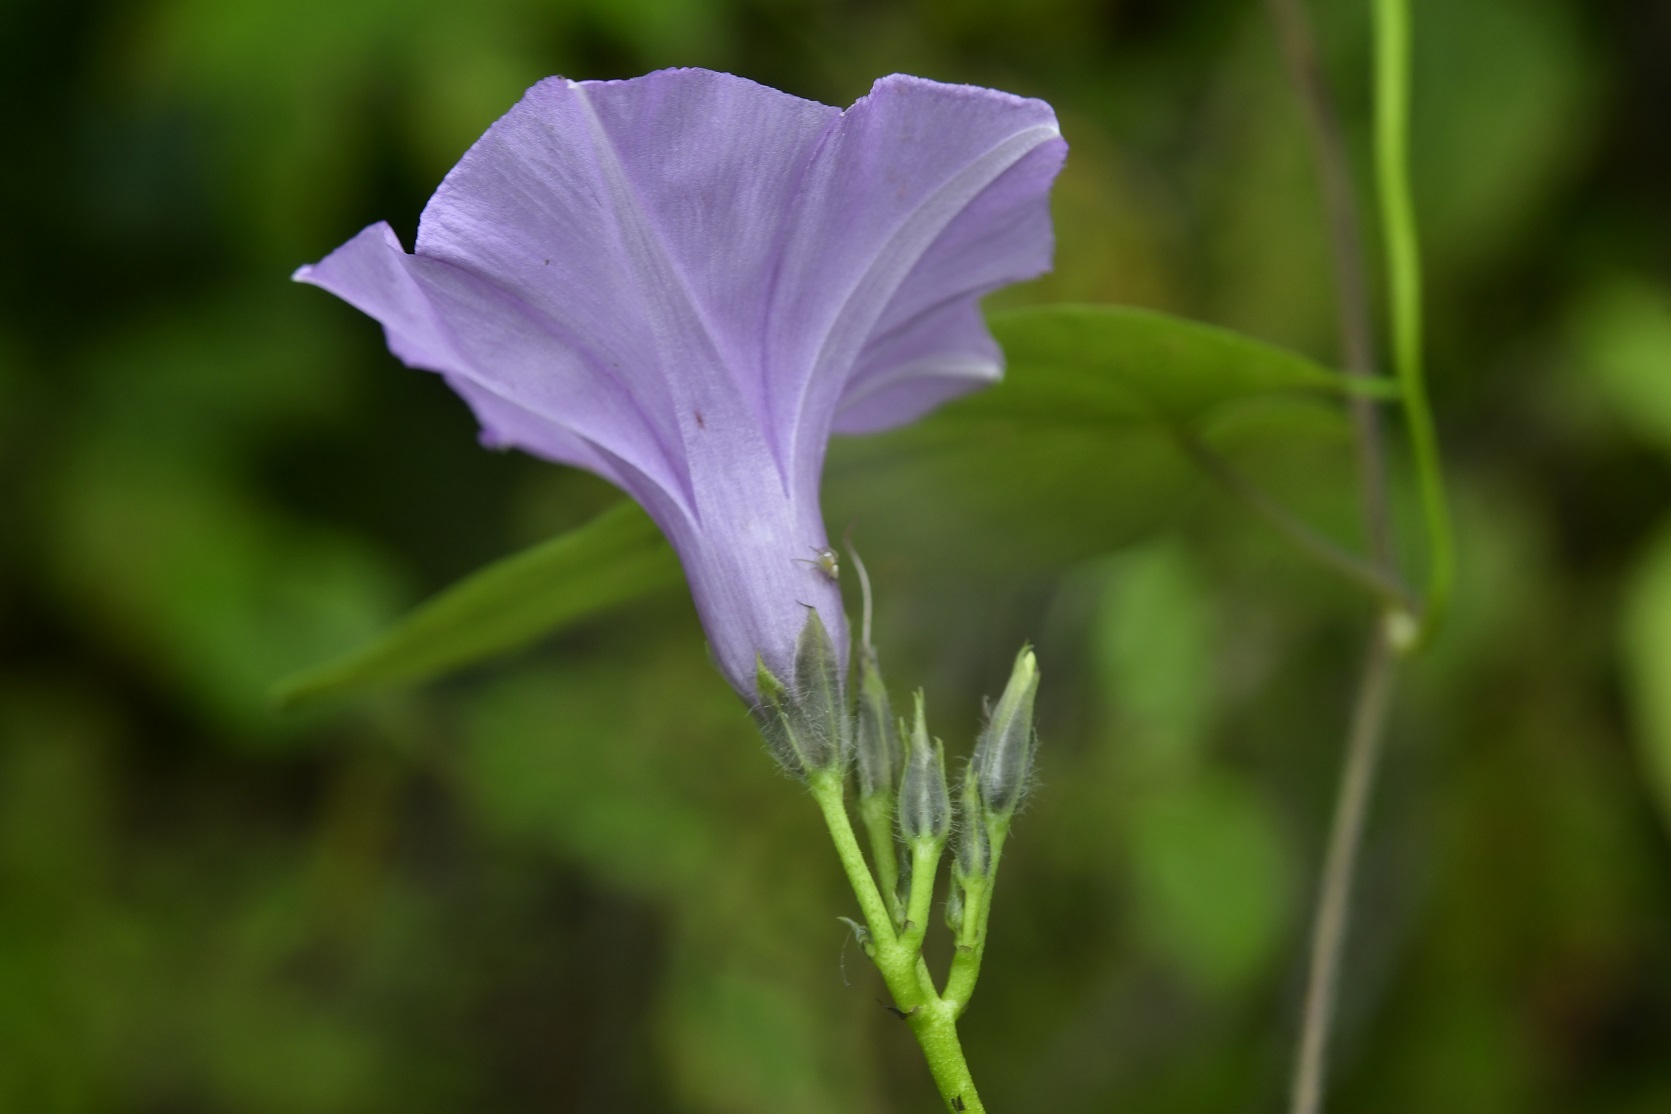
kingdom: Plantae
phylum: Tracheophyta
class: Magnoliopsida
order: Solanales
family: Convolvulaceae
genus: Ipomoea
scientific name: Ipomoea trifida
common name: Cotton morningglory
